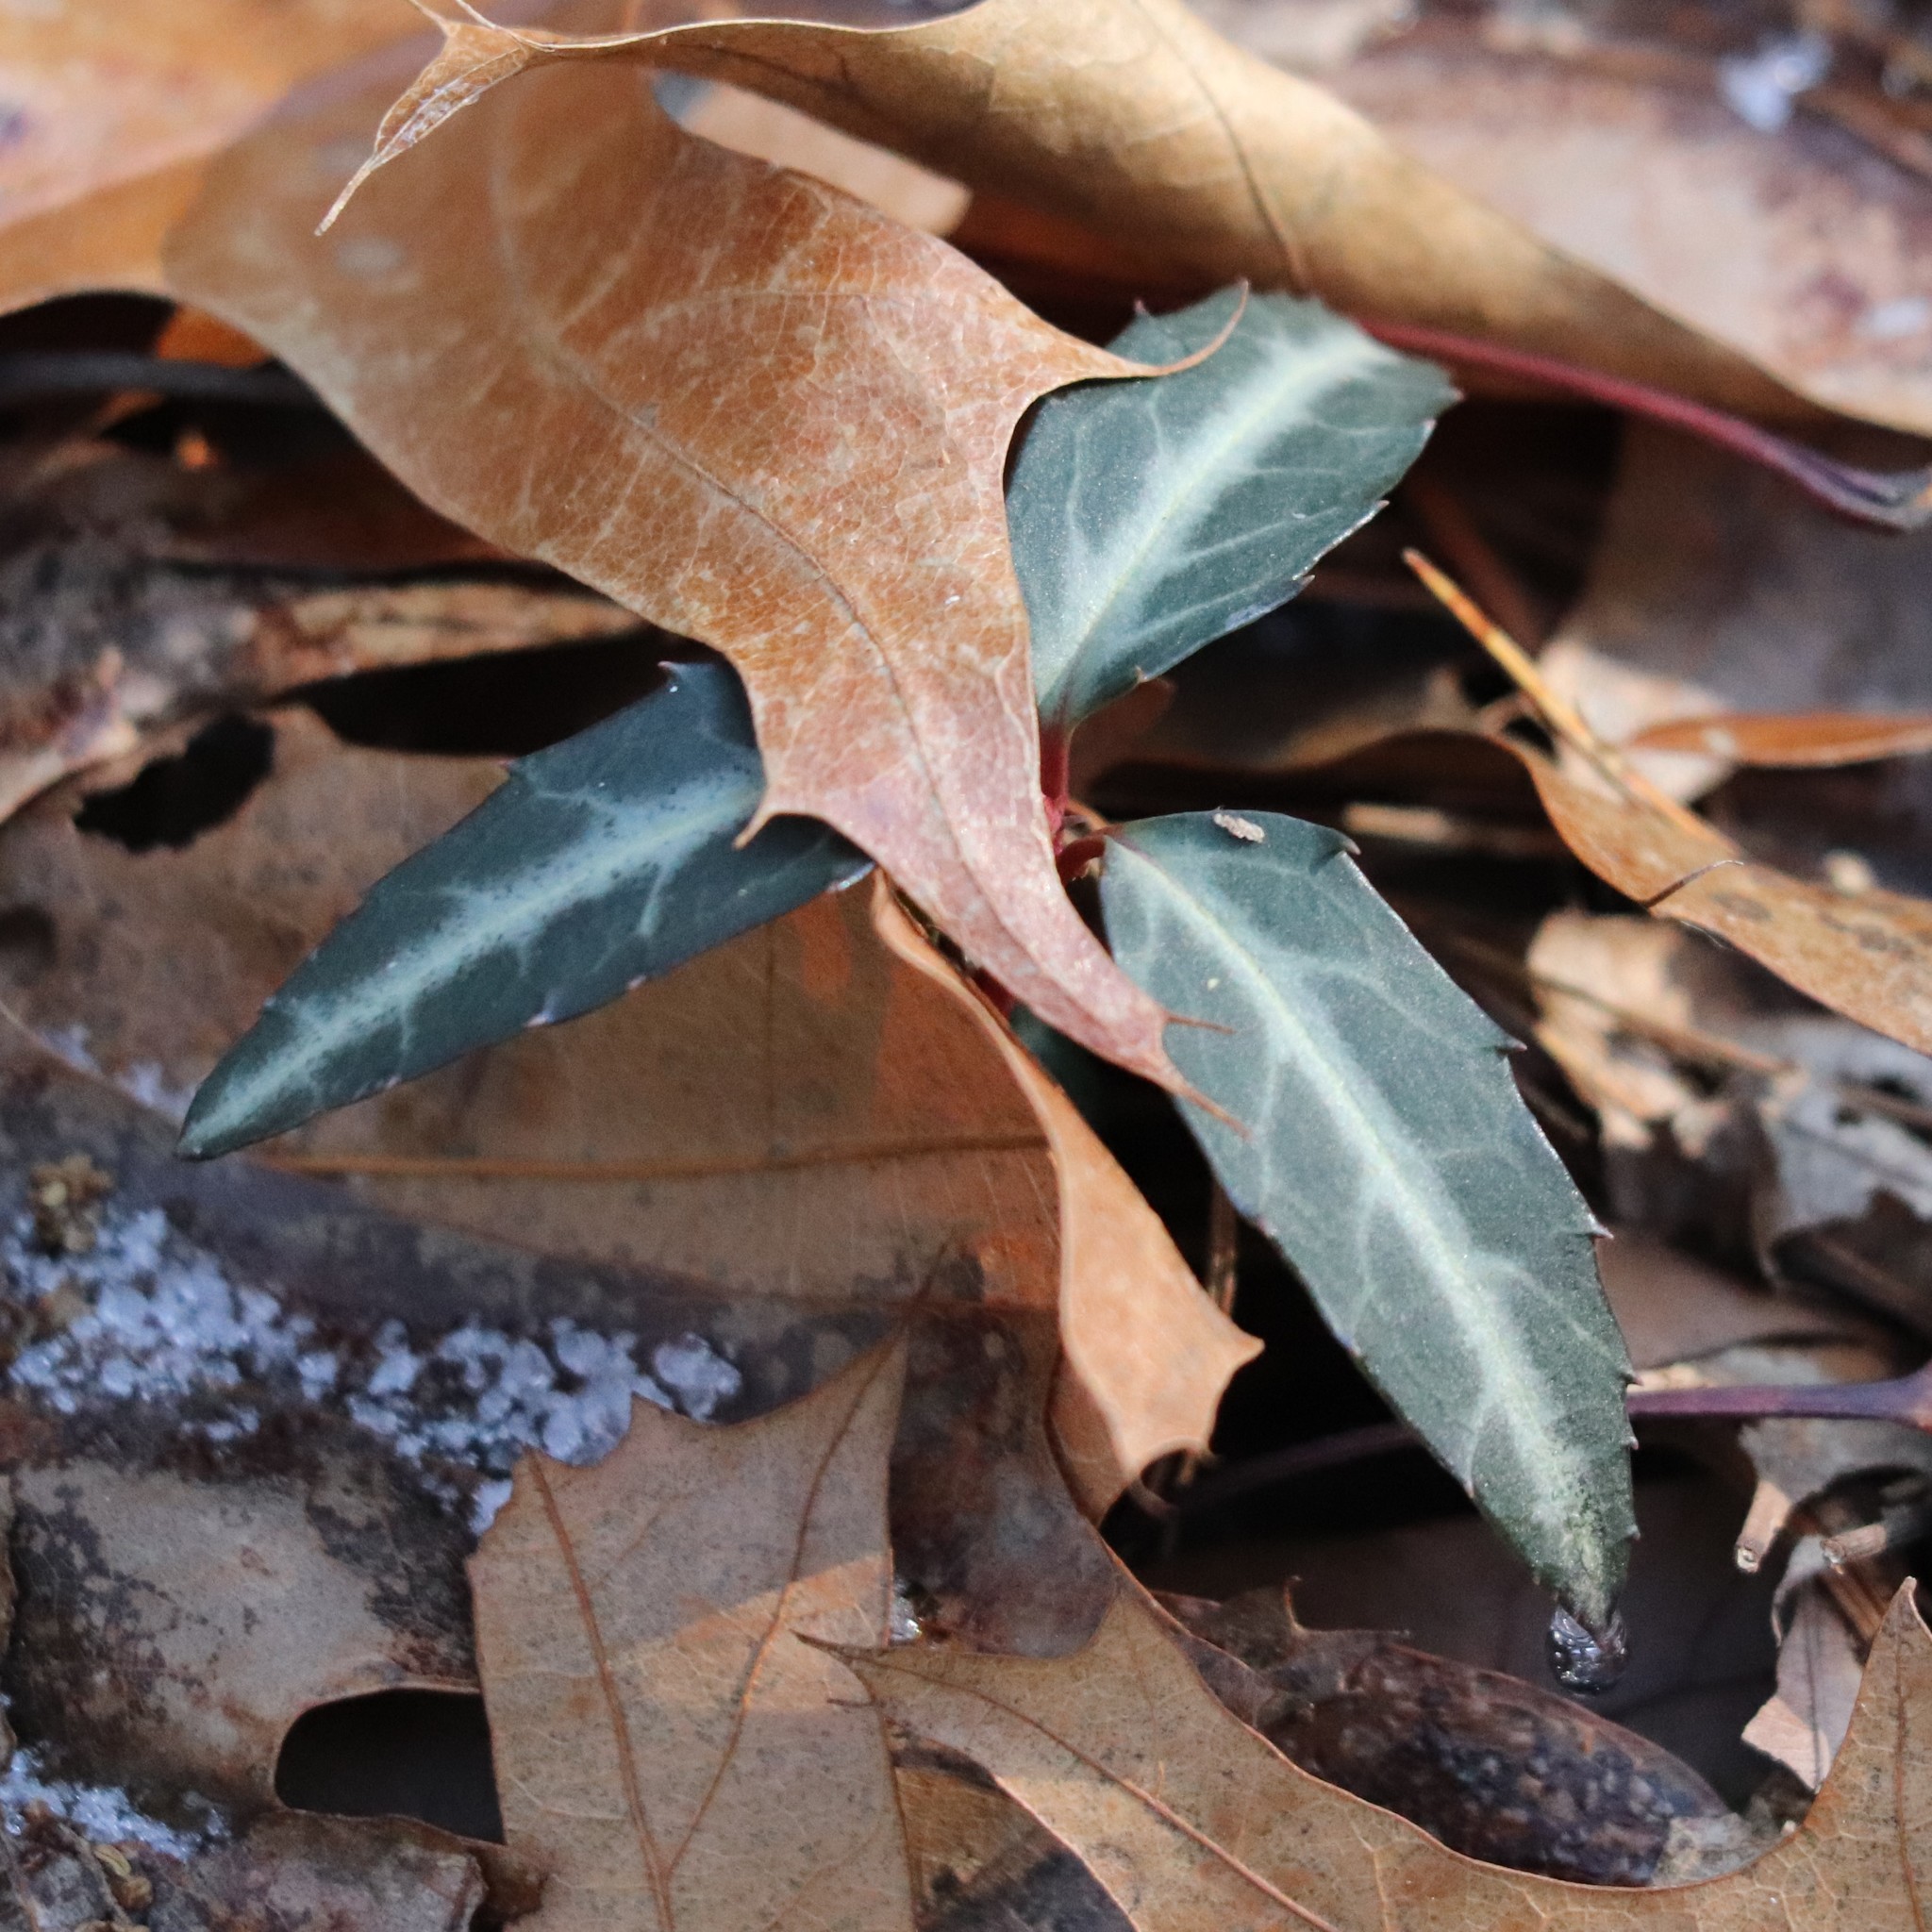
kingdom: Plantae
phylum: Tracheophyta
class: Magnoliopsida
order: Ericales
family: Ericaceae
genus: Chimaphila
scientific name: Chimaphila maculata
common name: Spotted pipsissewa
